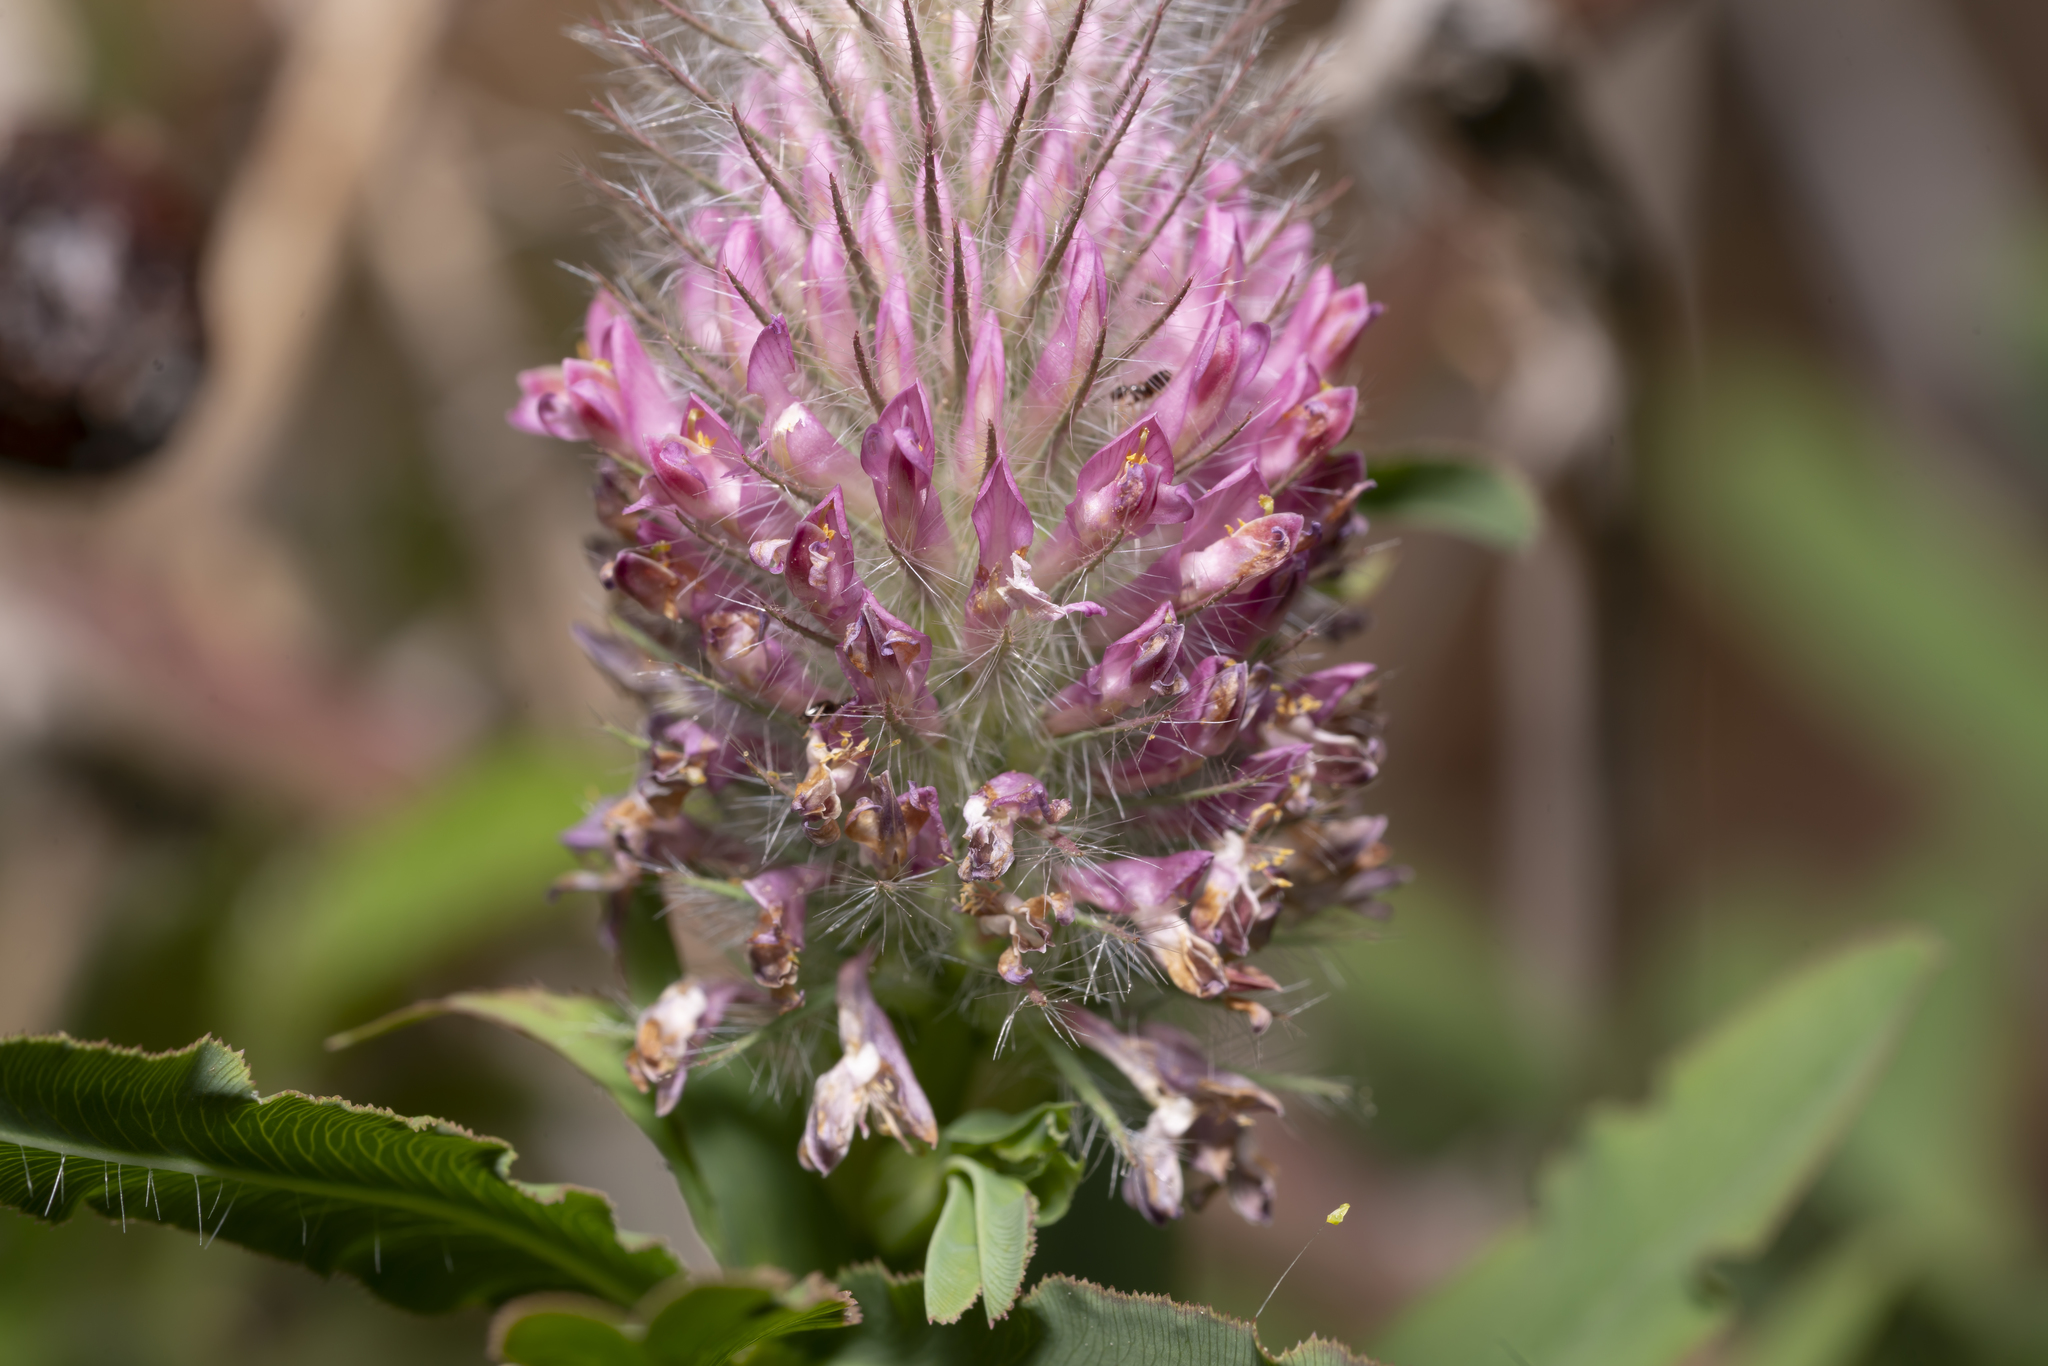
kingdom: Plantae
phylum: Tracheophyta
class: Magnoliopsida
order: Fabales
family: Fabaceae
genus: Trifolium
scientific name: Trifolium rubens
